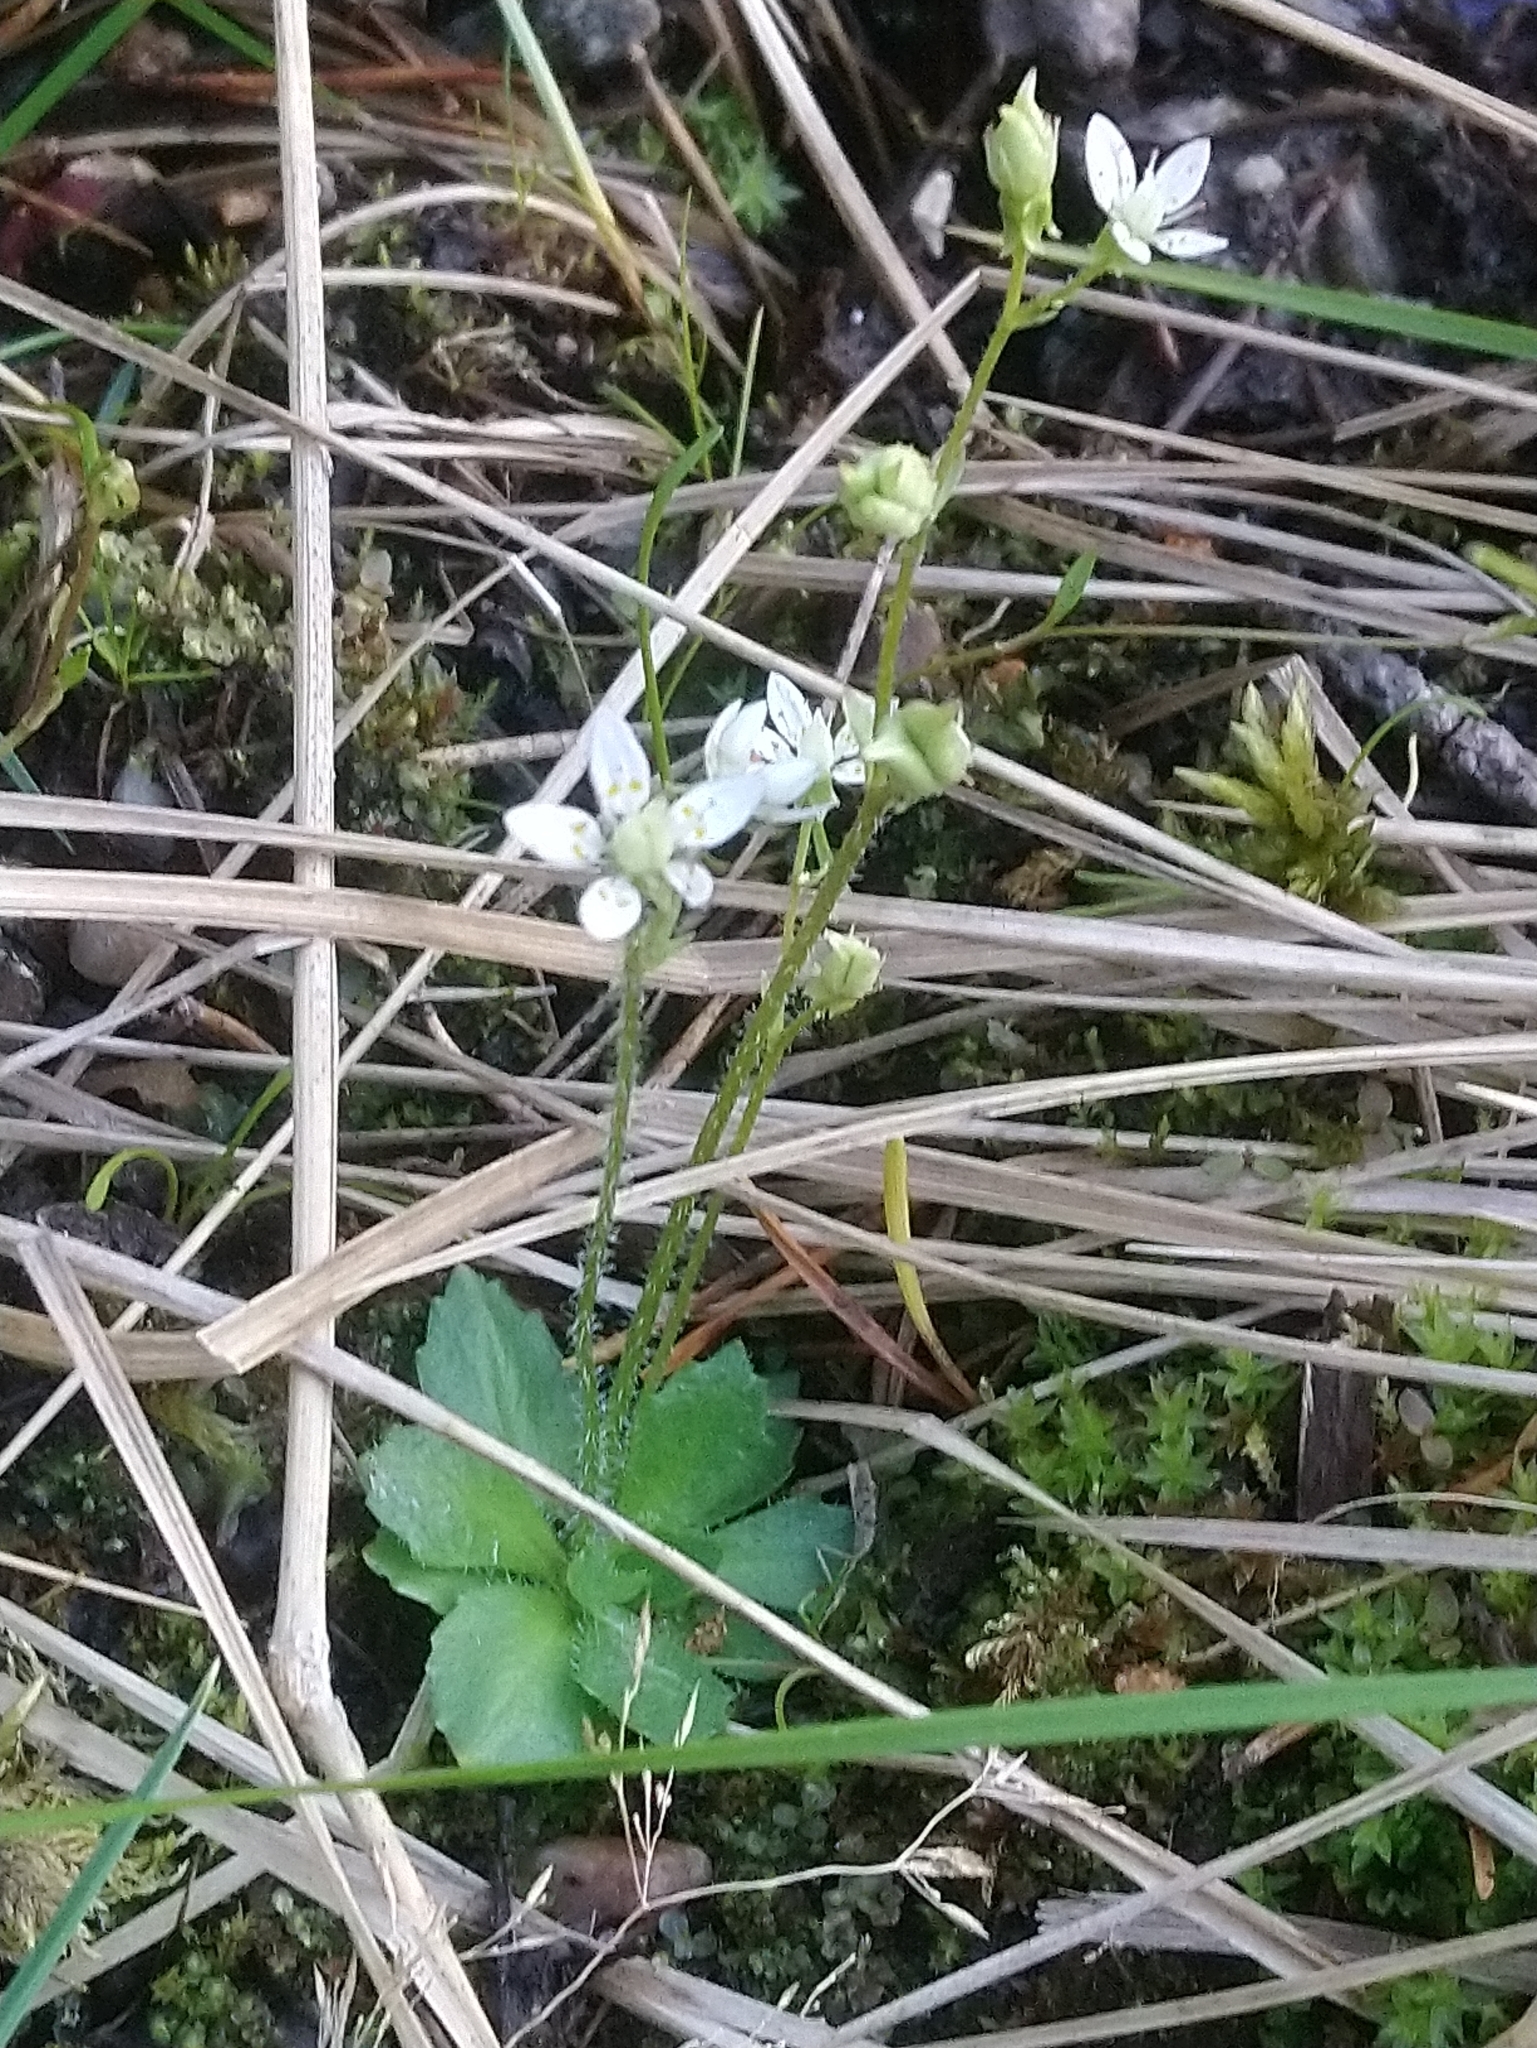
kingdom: Plantae
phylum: Tracheophyta
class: Magnoliopsida
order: Saxifragales
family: Saxifragaceae
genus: Micranthes
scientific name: Micranthes stellaris
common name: Starry saxifrage
